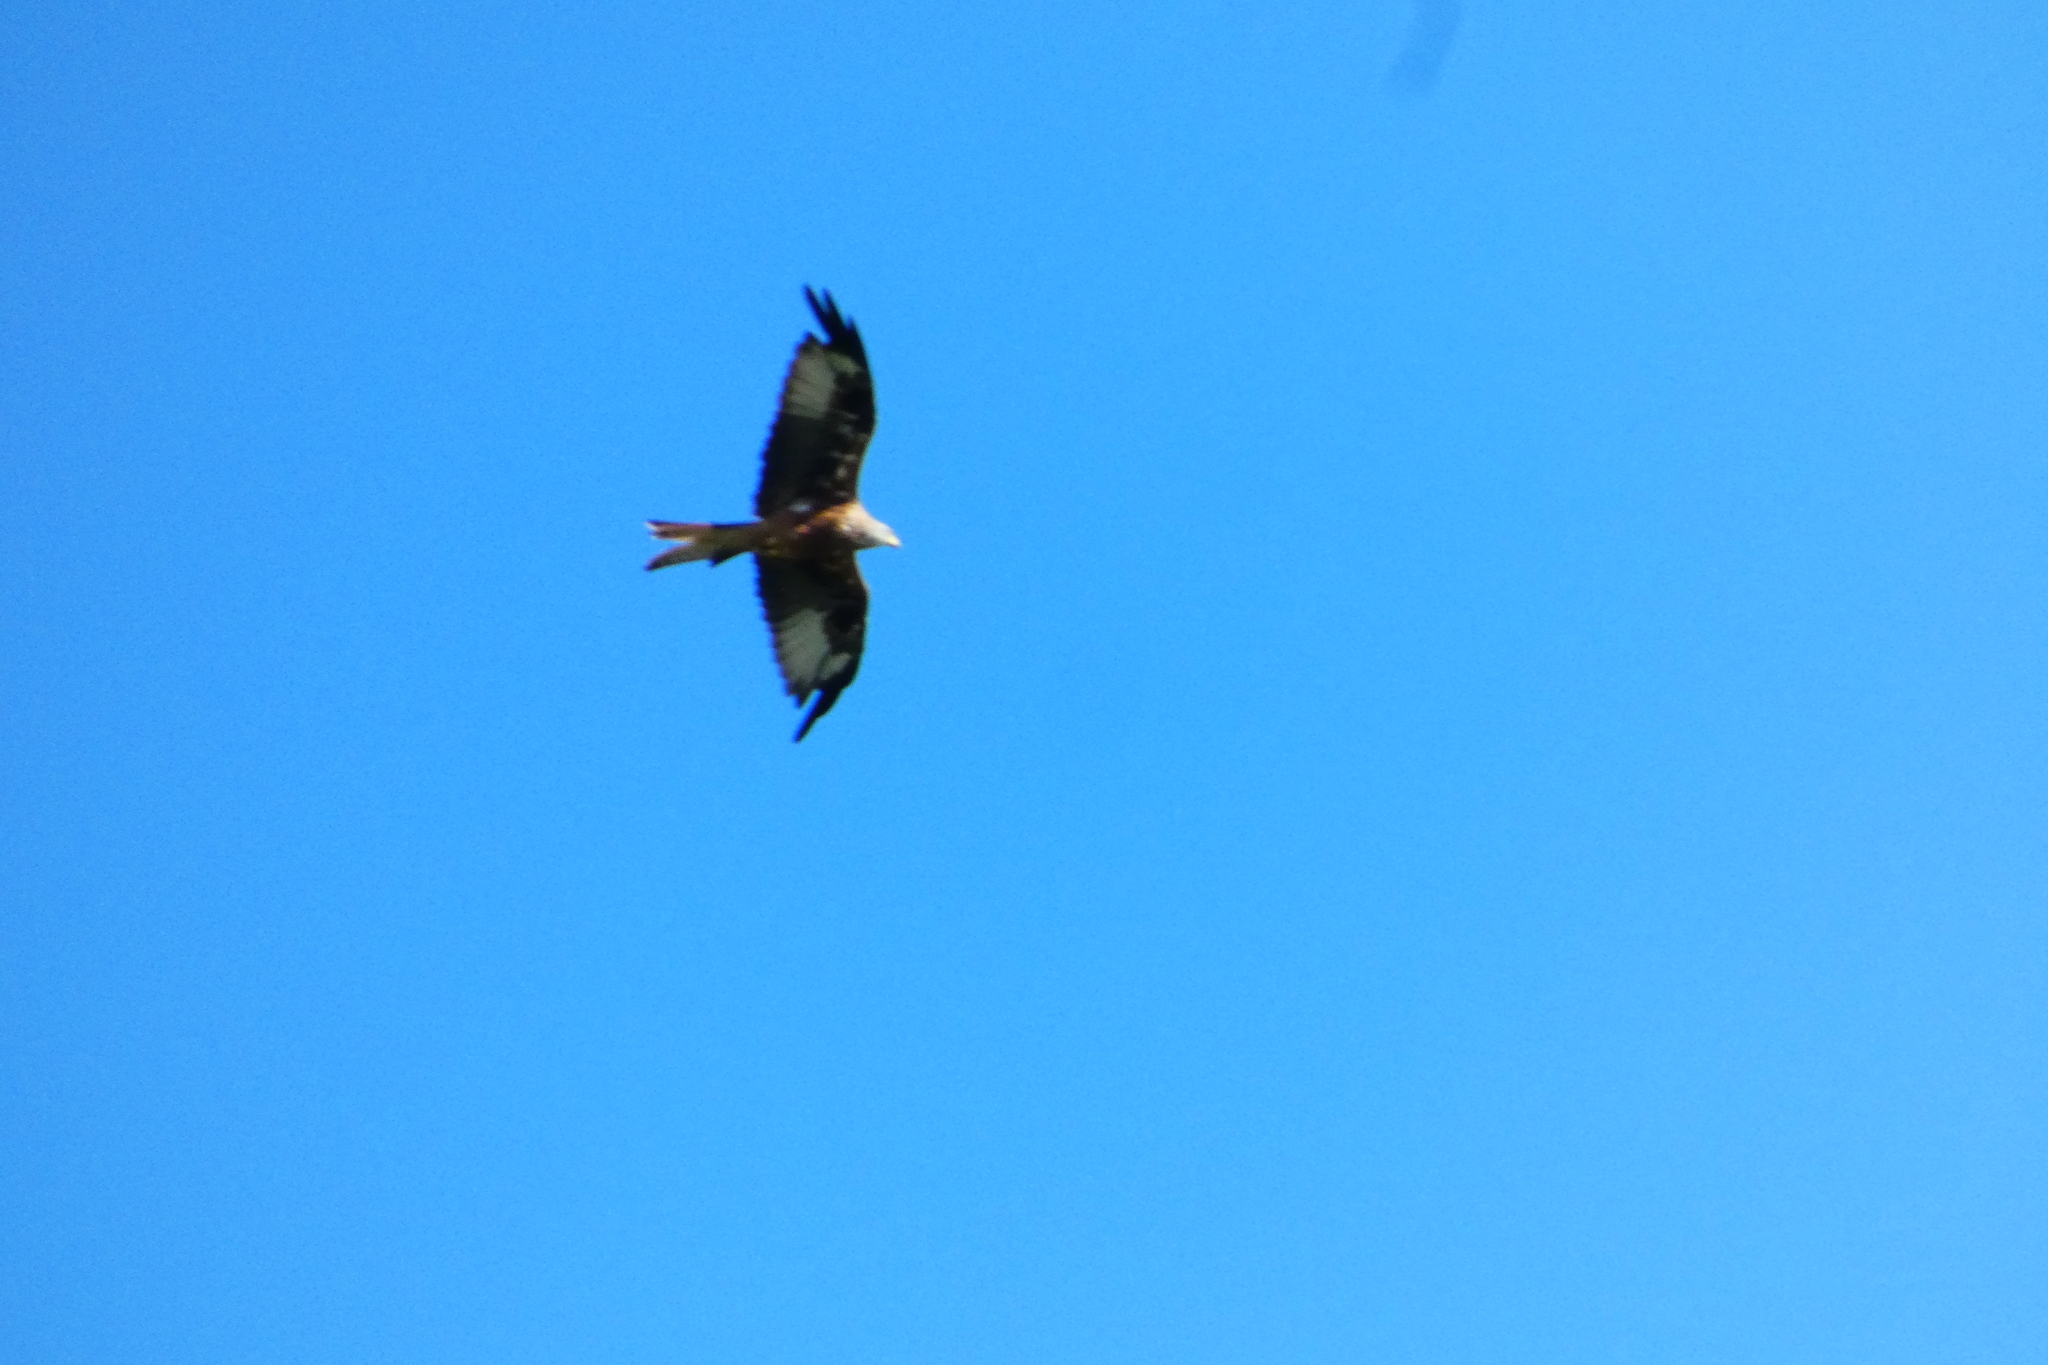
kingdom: Animalia
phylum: Chordata
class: Aves
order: Accipitriformes
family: Accipitridae
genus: Milvus
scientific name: Milvus milvus
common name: Red kite
